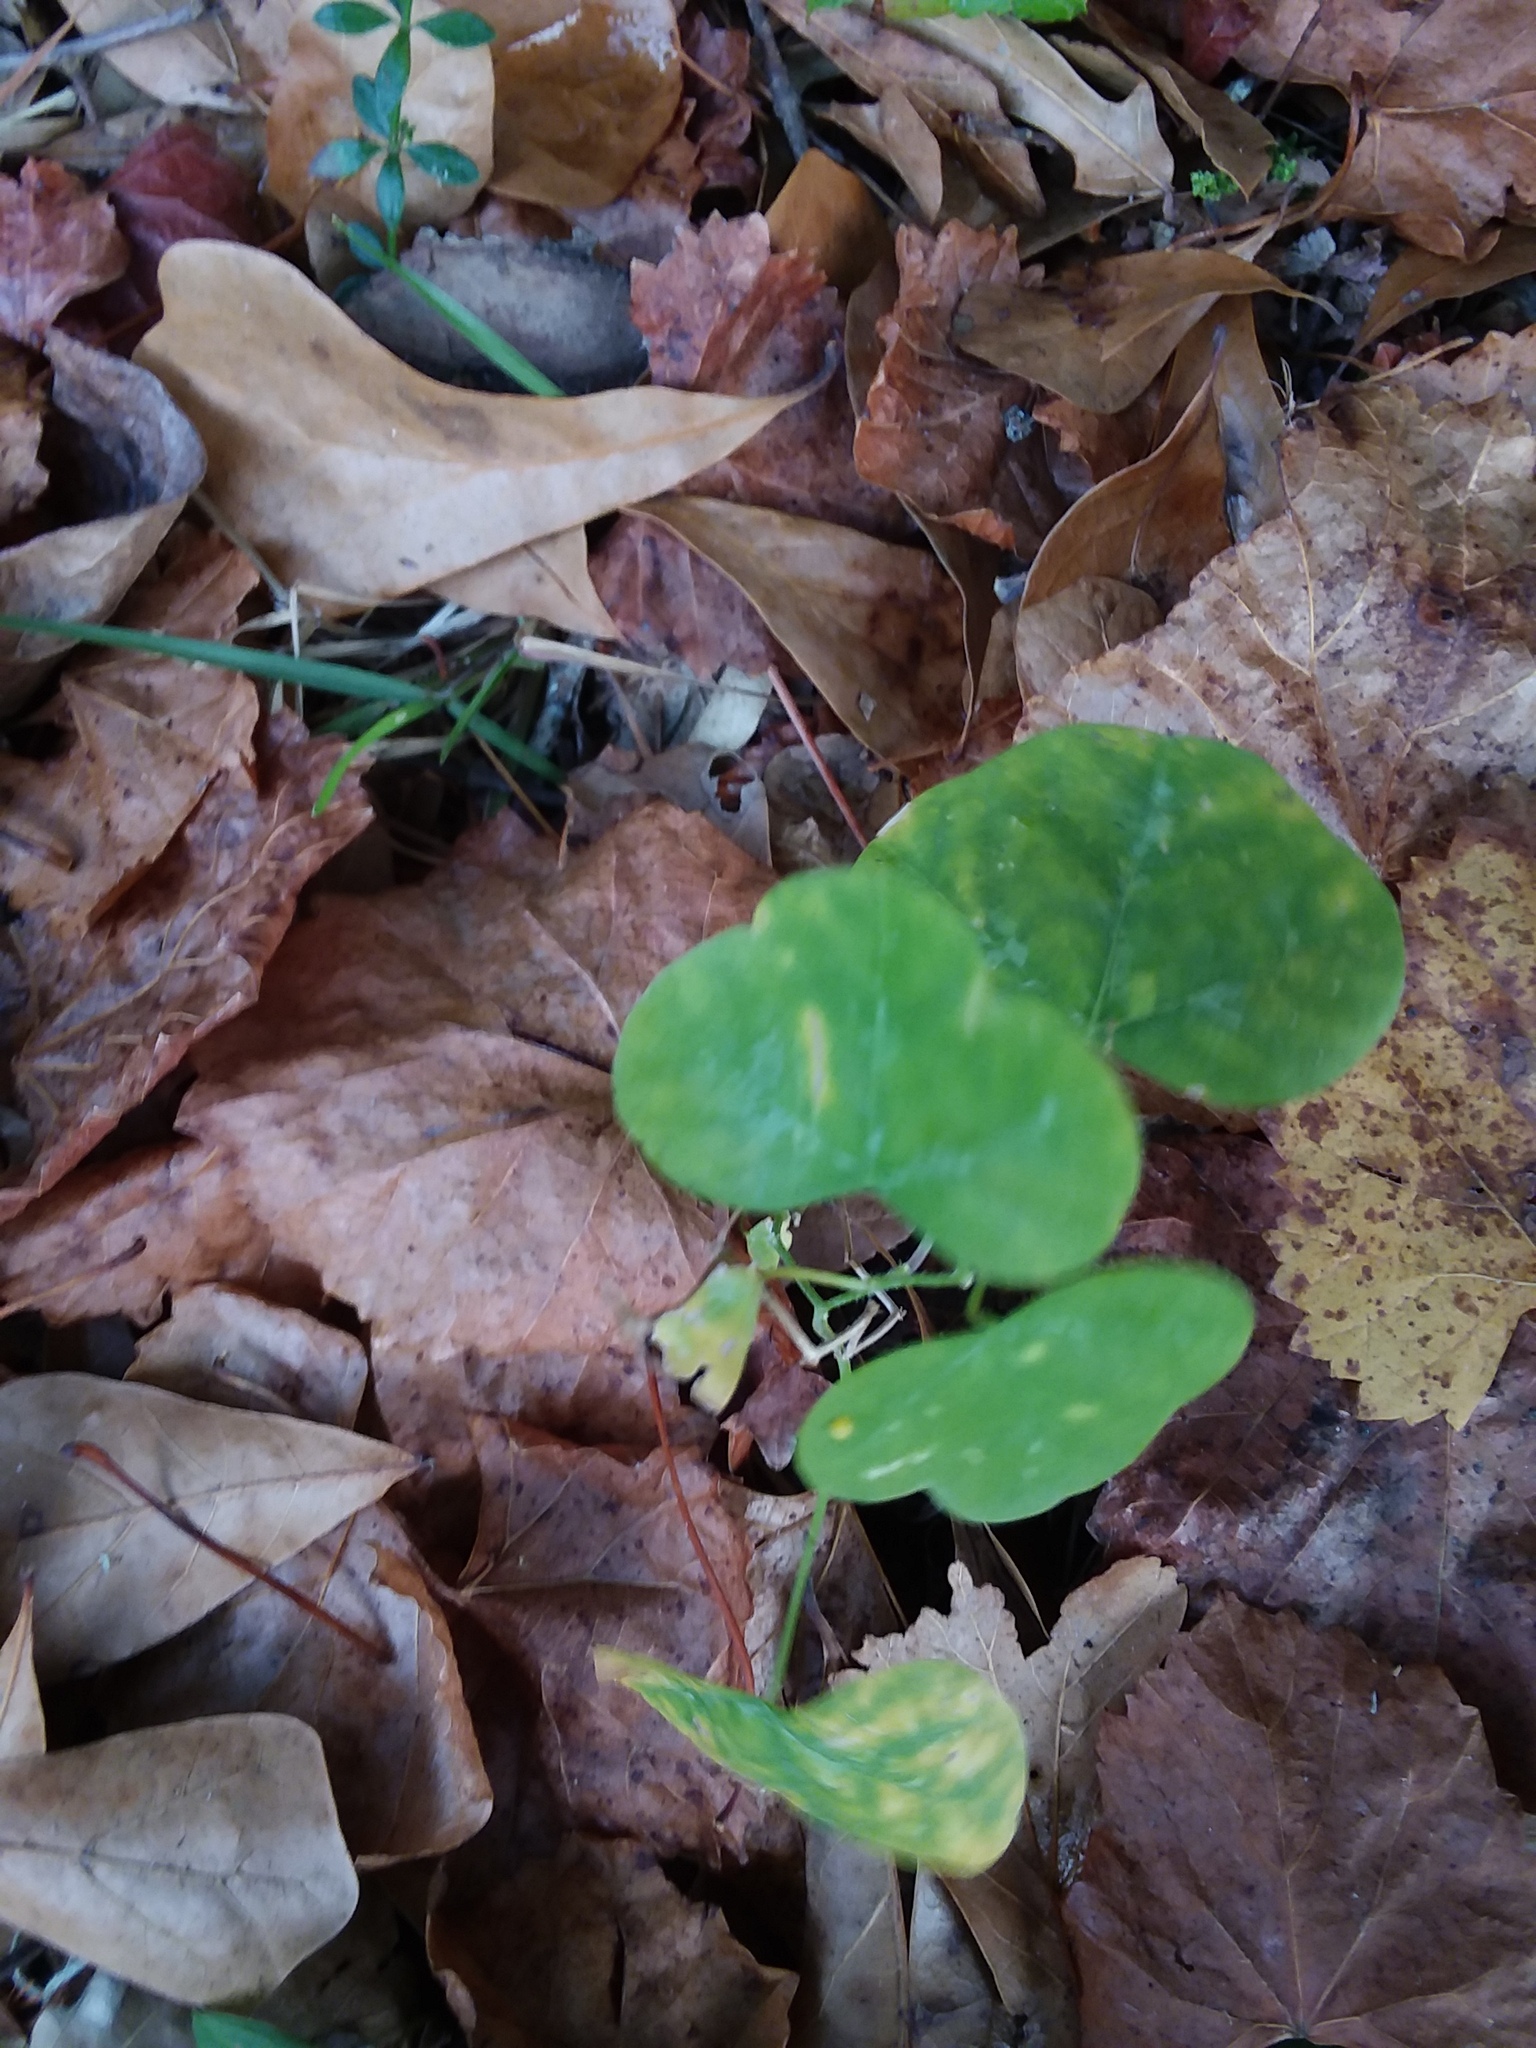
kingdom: Plantae
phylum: Tracheophyta
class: Magnoliopsida
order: Malpighiales
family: Passifloraceae
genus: Passiflora
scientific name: Passiflora lutea
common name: Yellow passionflower
